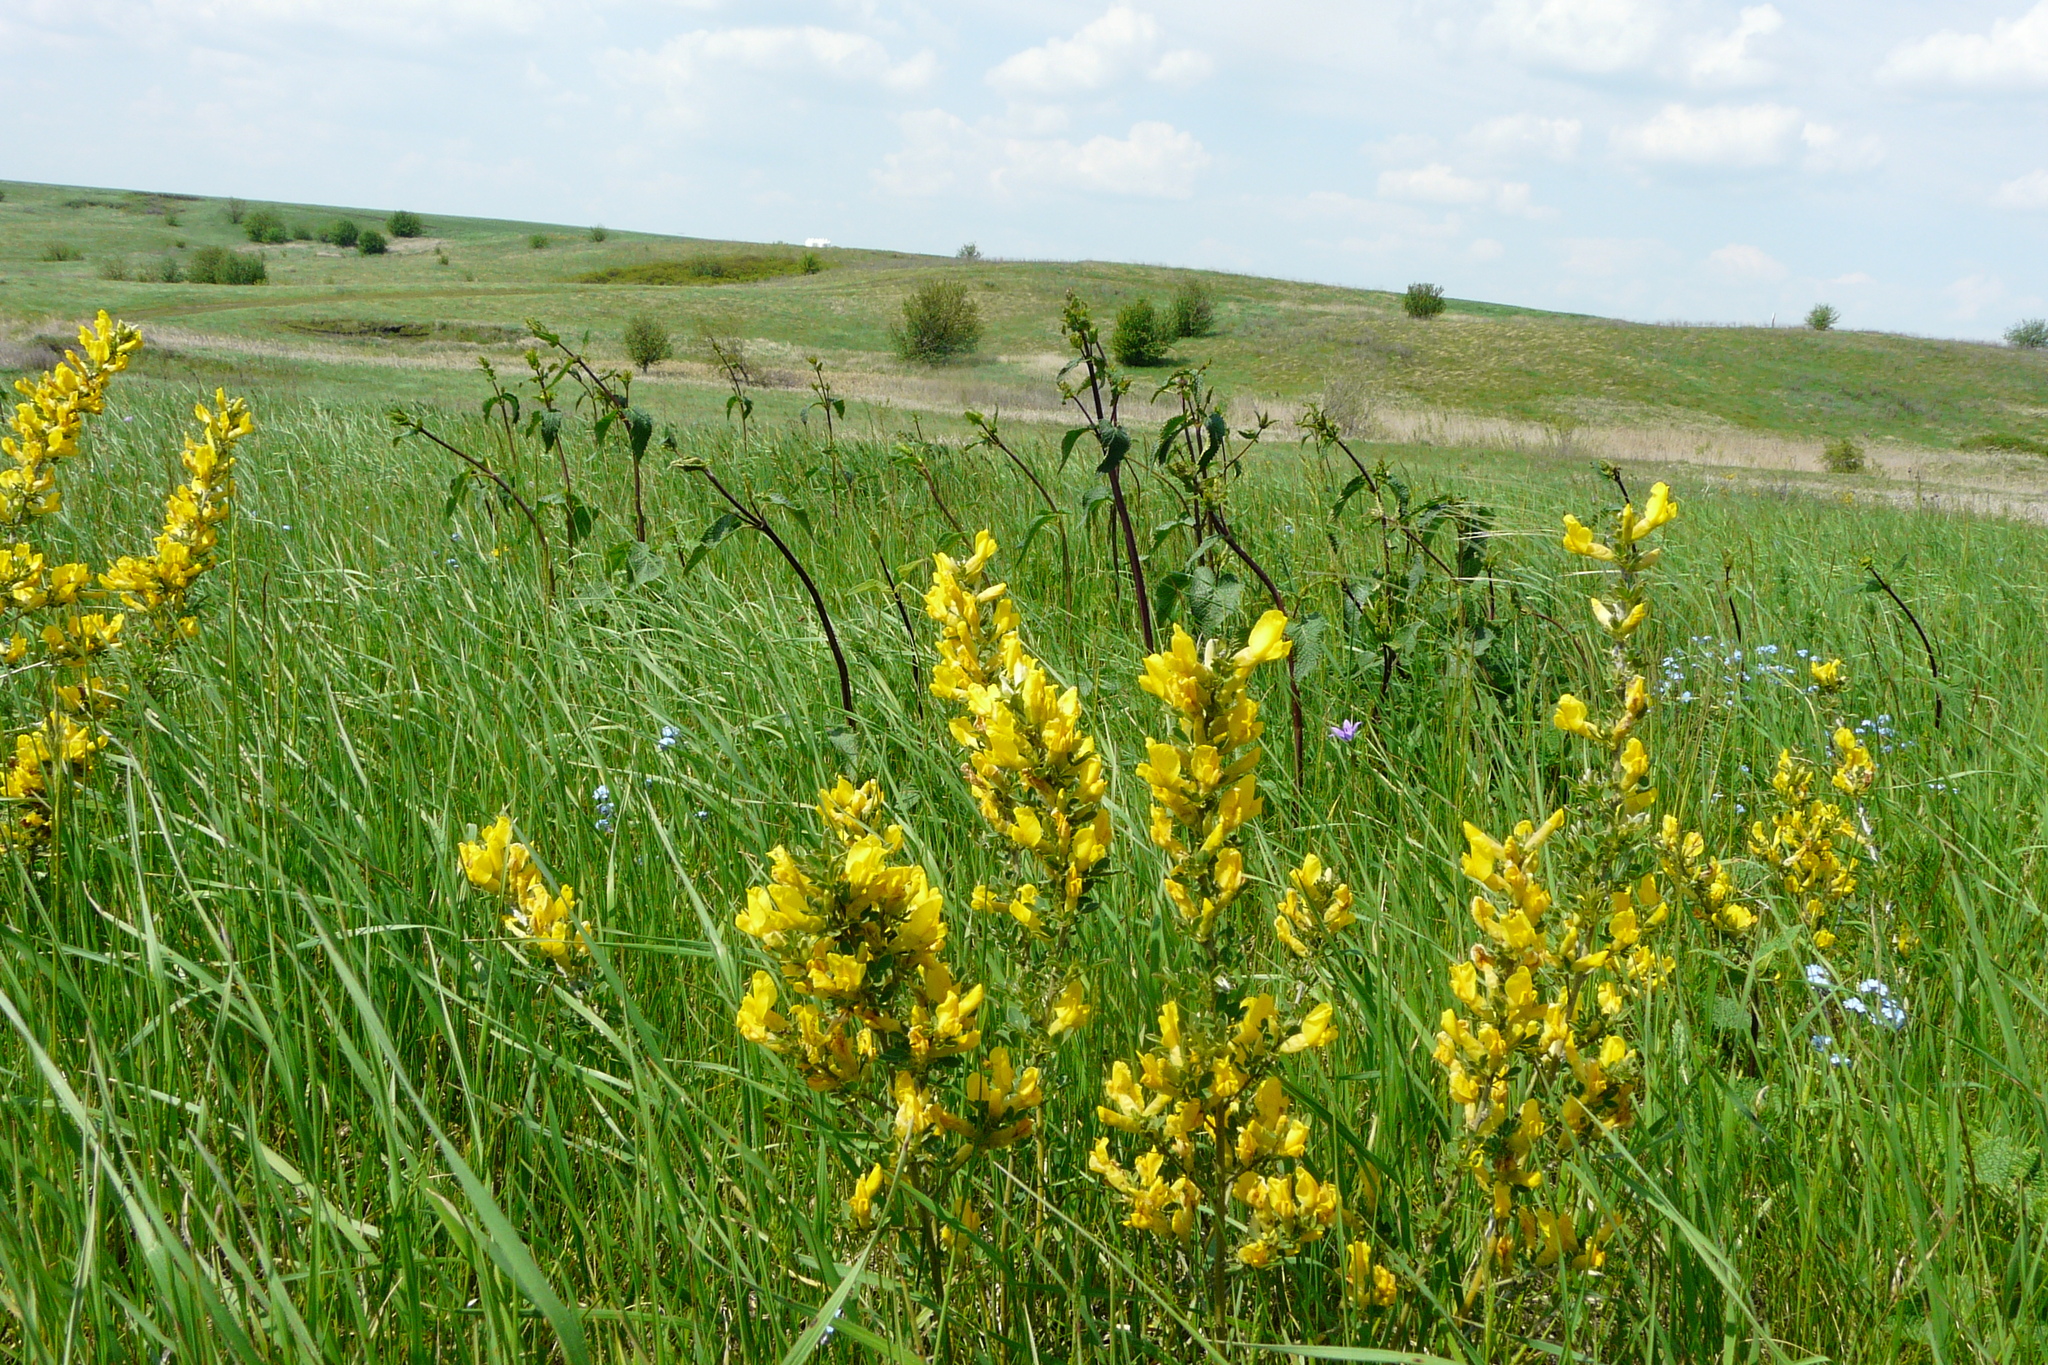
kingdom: Plantae
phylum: Tracheophyta
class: Magnoliopsida
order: Fabales
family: Fabaceae
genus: Chamaecytisus
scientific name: Chamaecytisus ruthenicus
